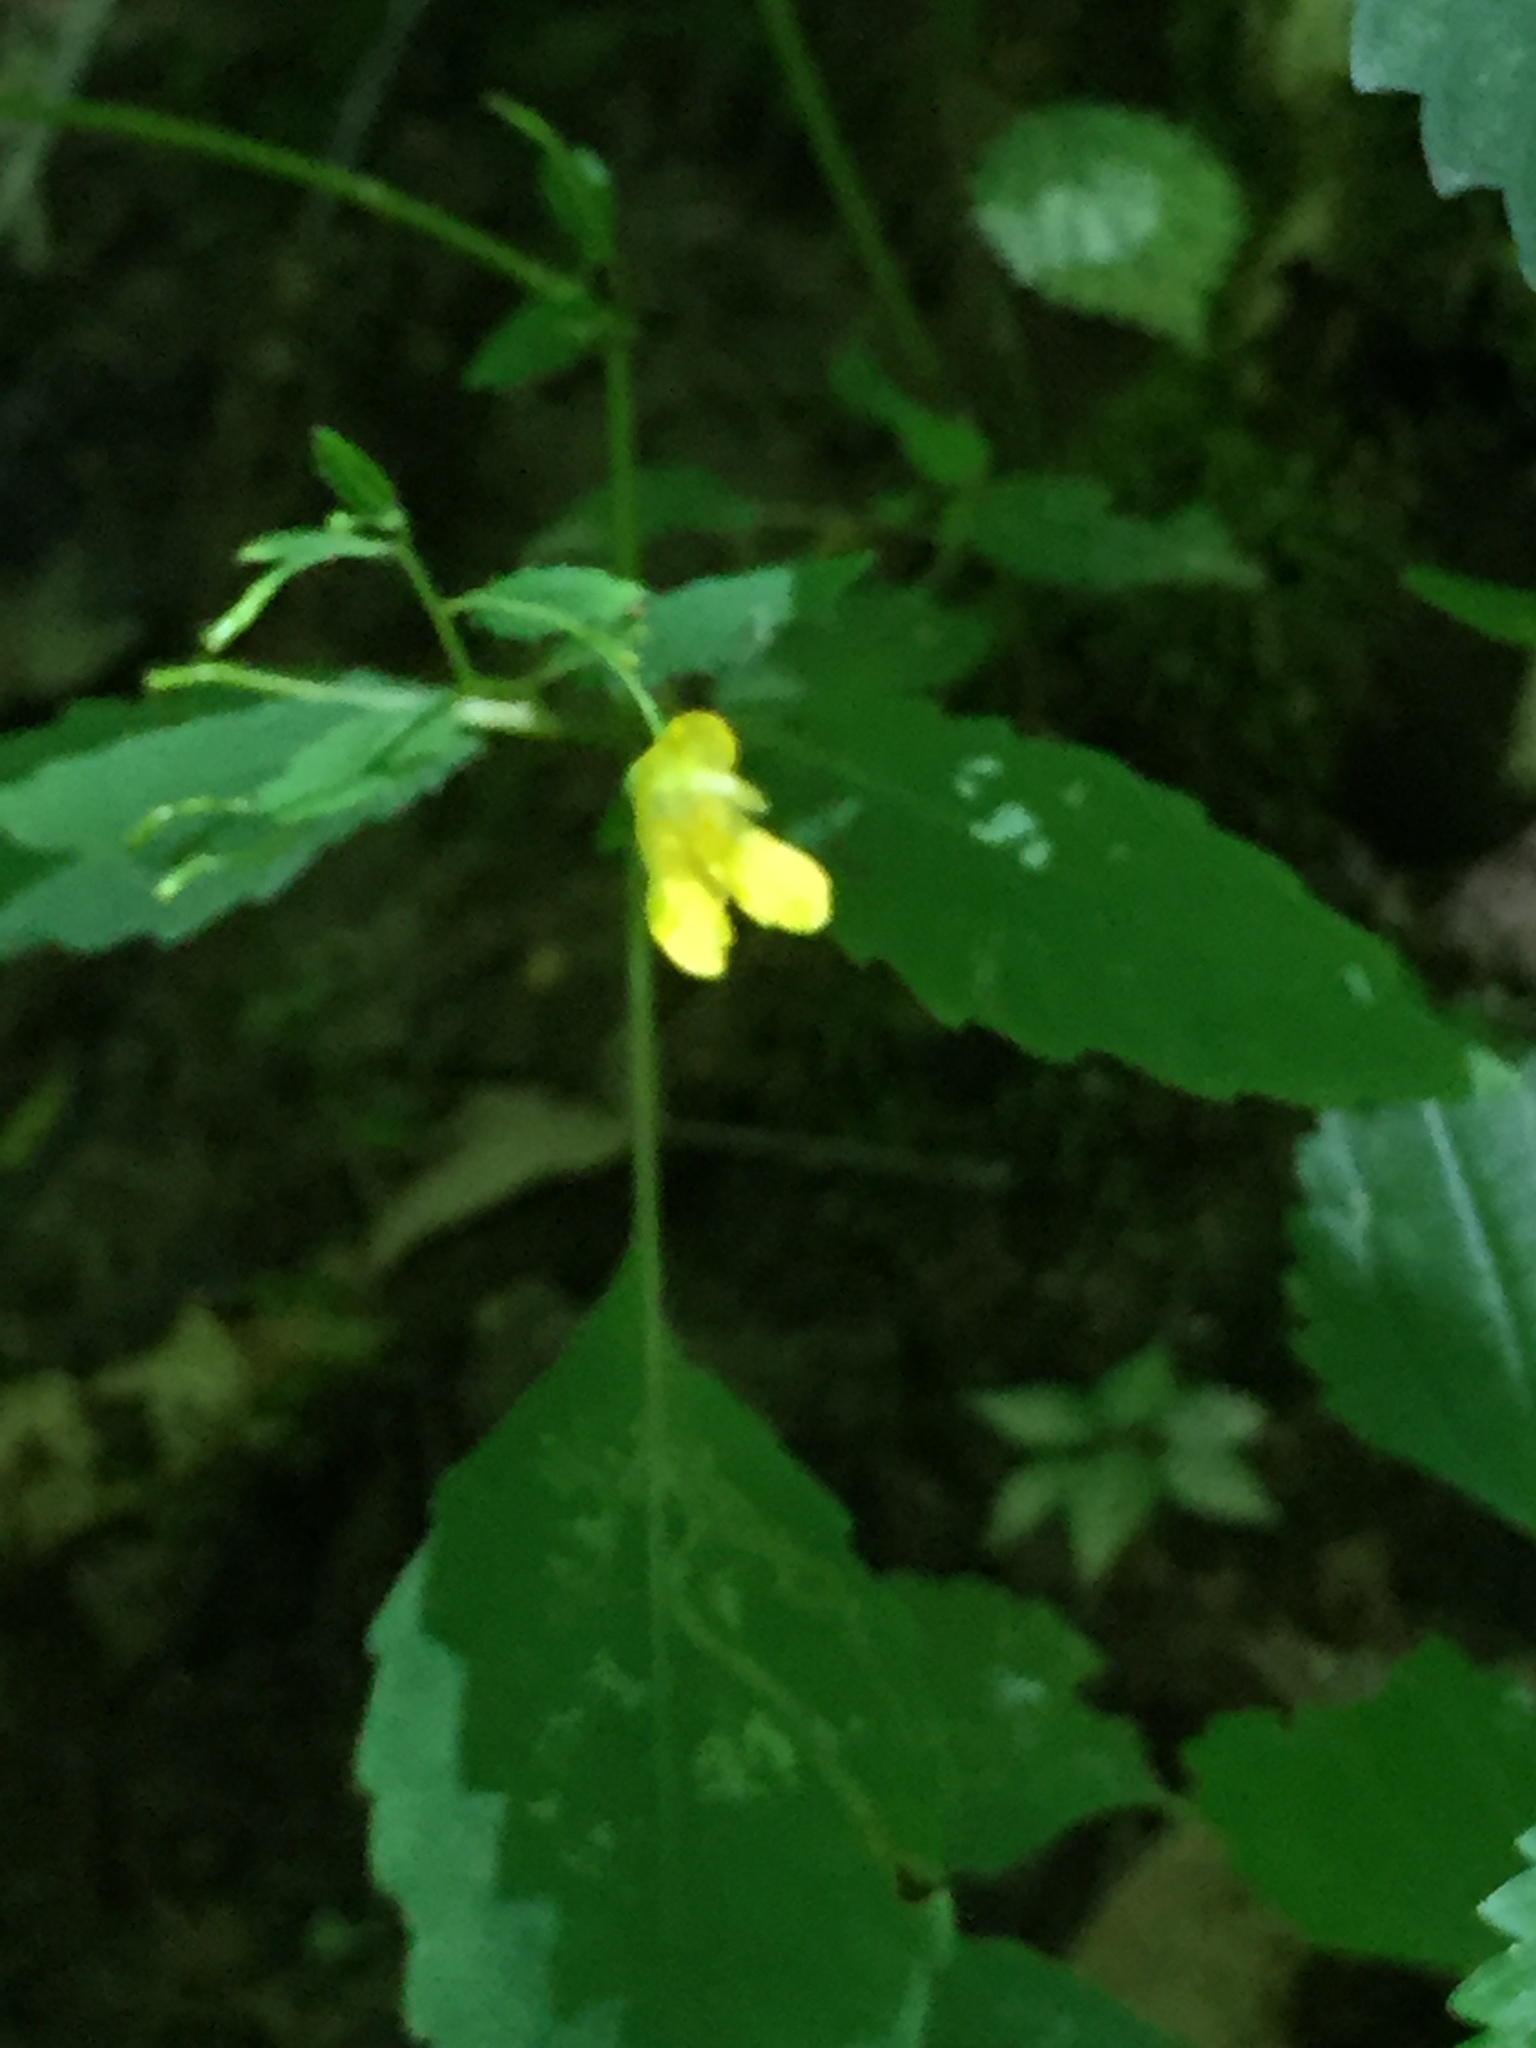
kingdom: Plantae
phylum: Tracheophyta
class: Magnoliopsida
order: Ericales
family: Balsaminaceae
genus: Impatiens
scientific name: Impatiens pallida
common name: Pale snapweed
